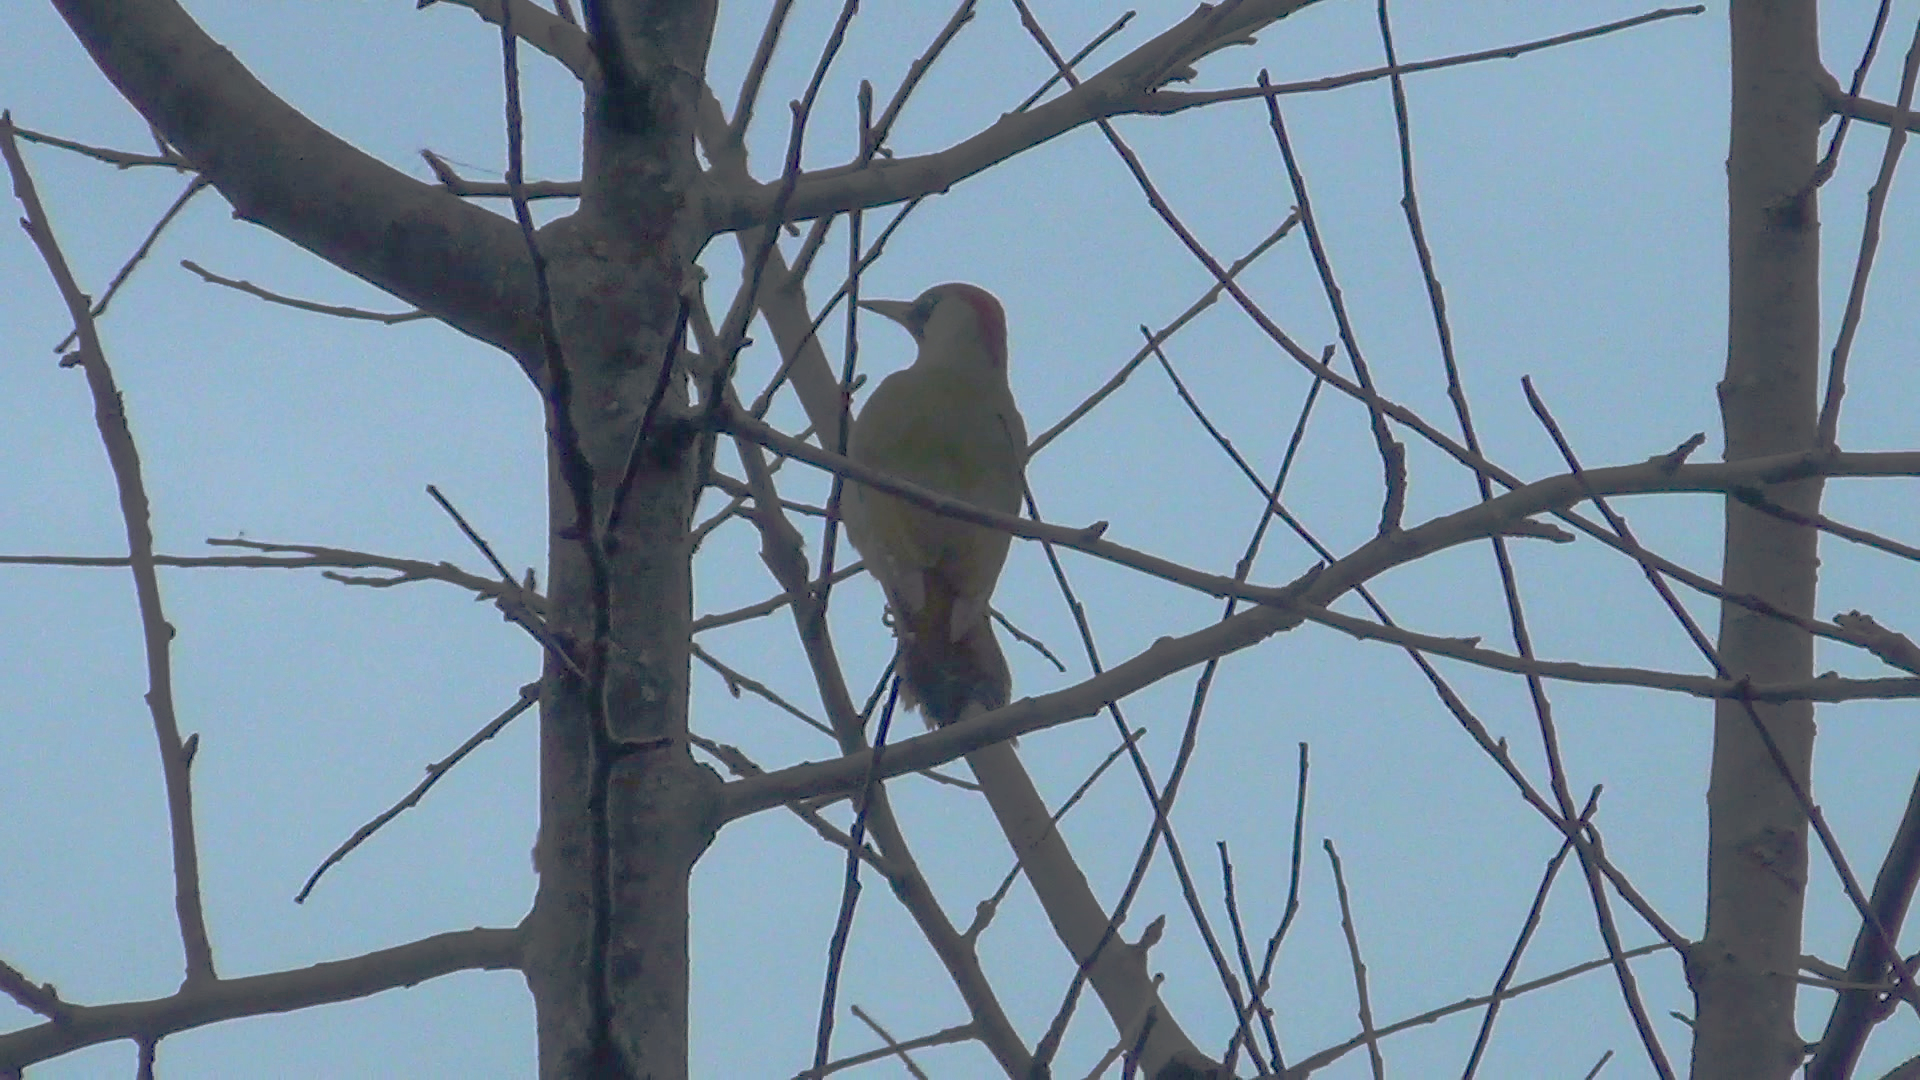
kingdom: Animalia
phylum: Chordata
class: Aves
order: Piciformes
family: Picidae
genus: Picus
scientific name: Picus viridis
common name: European green woodpecker
